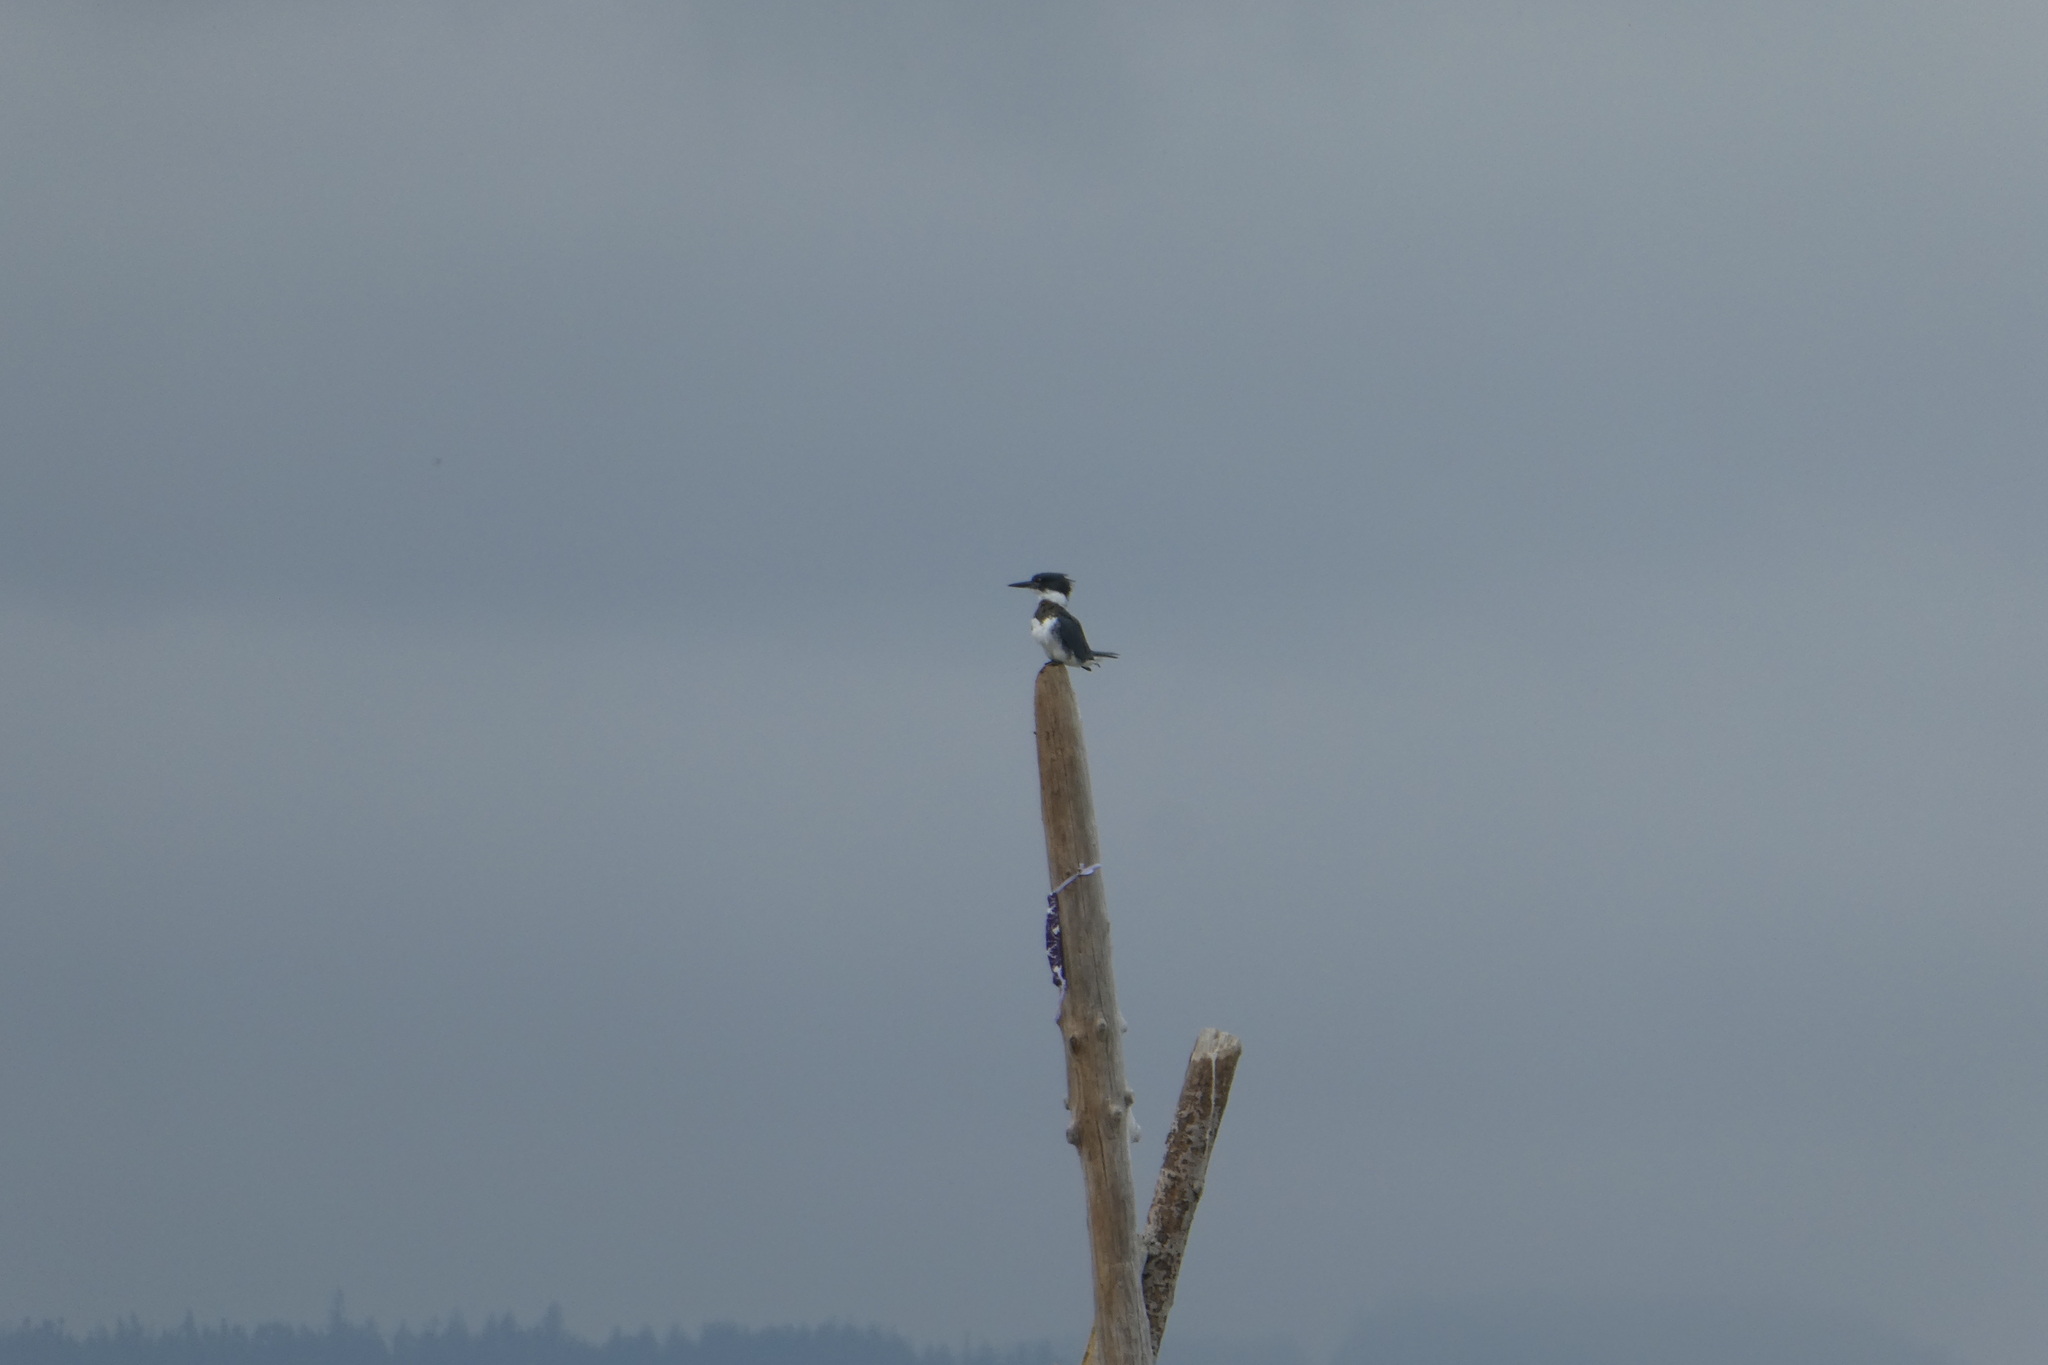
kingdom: Animalia
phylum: Chordata
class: Aves
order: Coraciiformes
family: Alcedinidae
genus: Megaceryle
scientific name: Megaceryle alcyon
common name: Belted kingfisher
